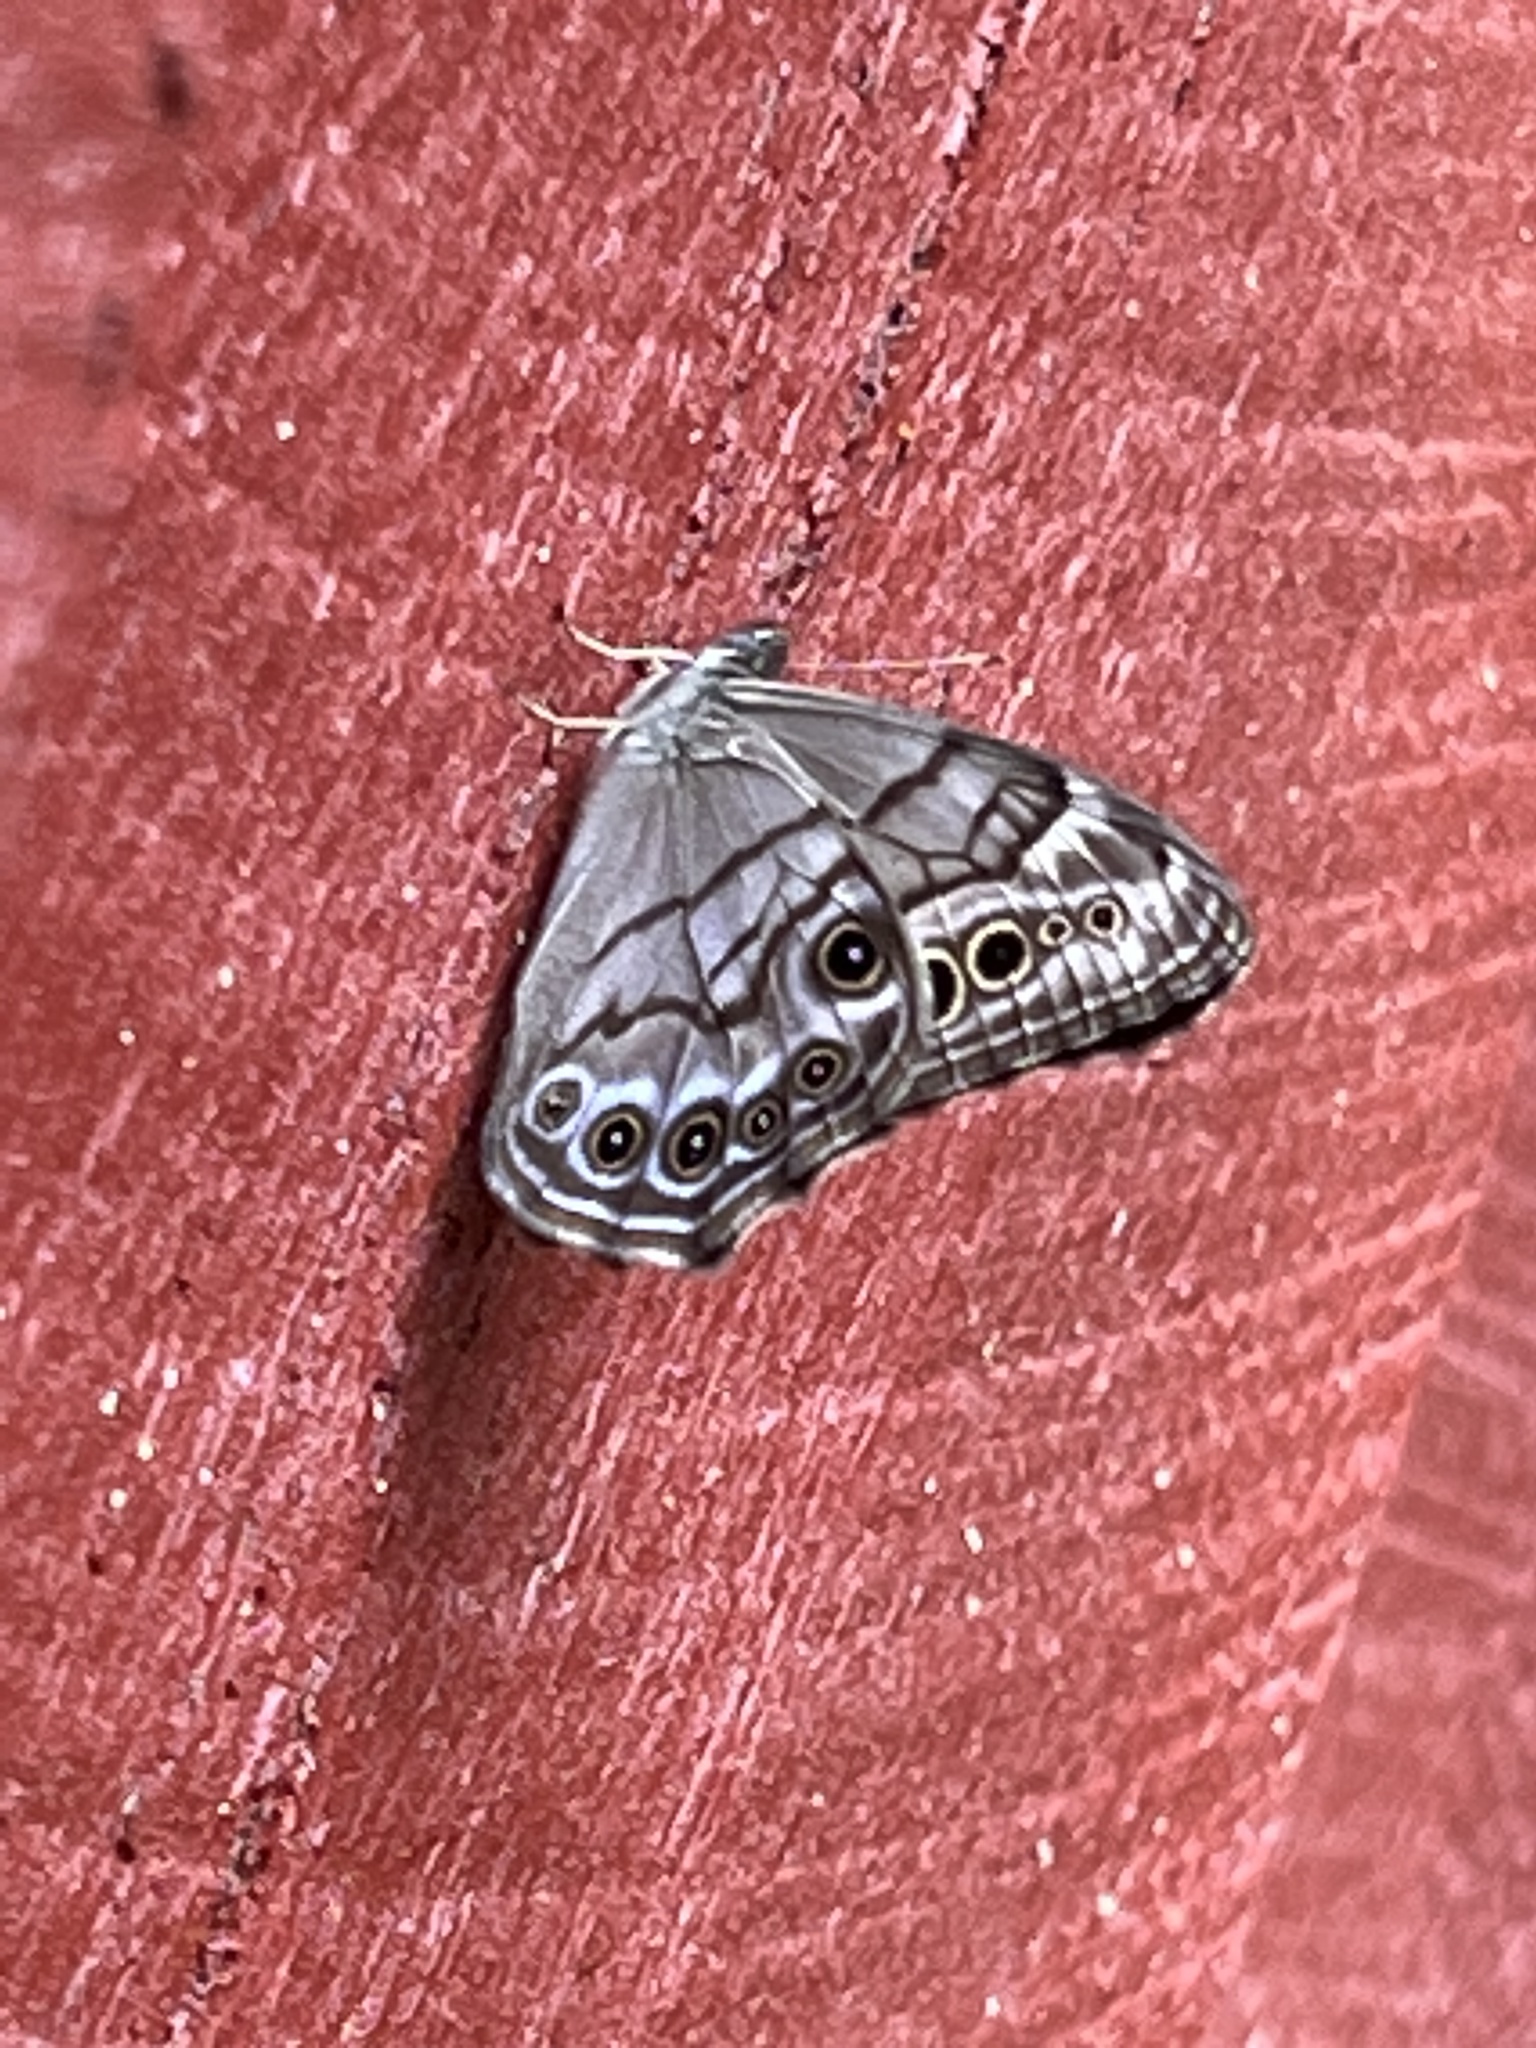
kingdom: Animalia
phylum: Arthropoda
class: Insecta
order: Lepidoptera
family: Nymphalidae
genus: Lethe
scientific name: Lethe anthedon
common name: Northern pearly-eye
